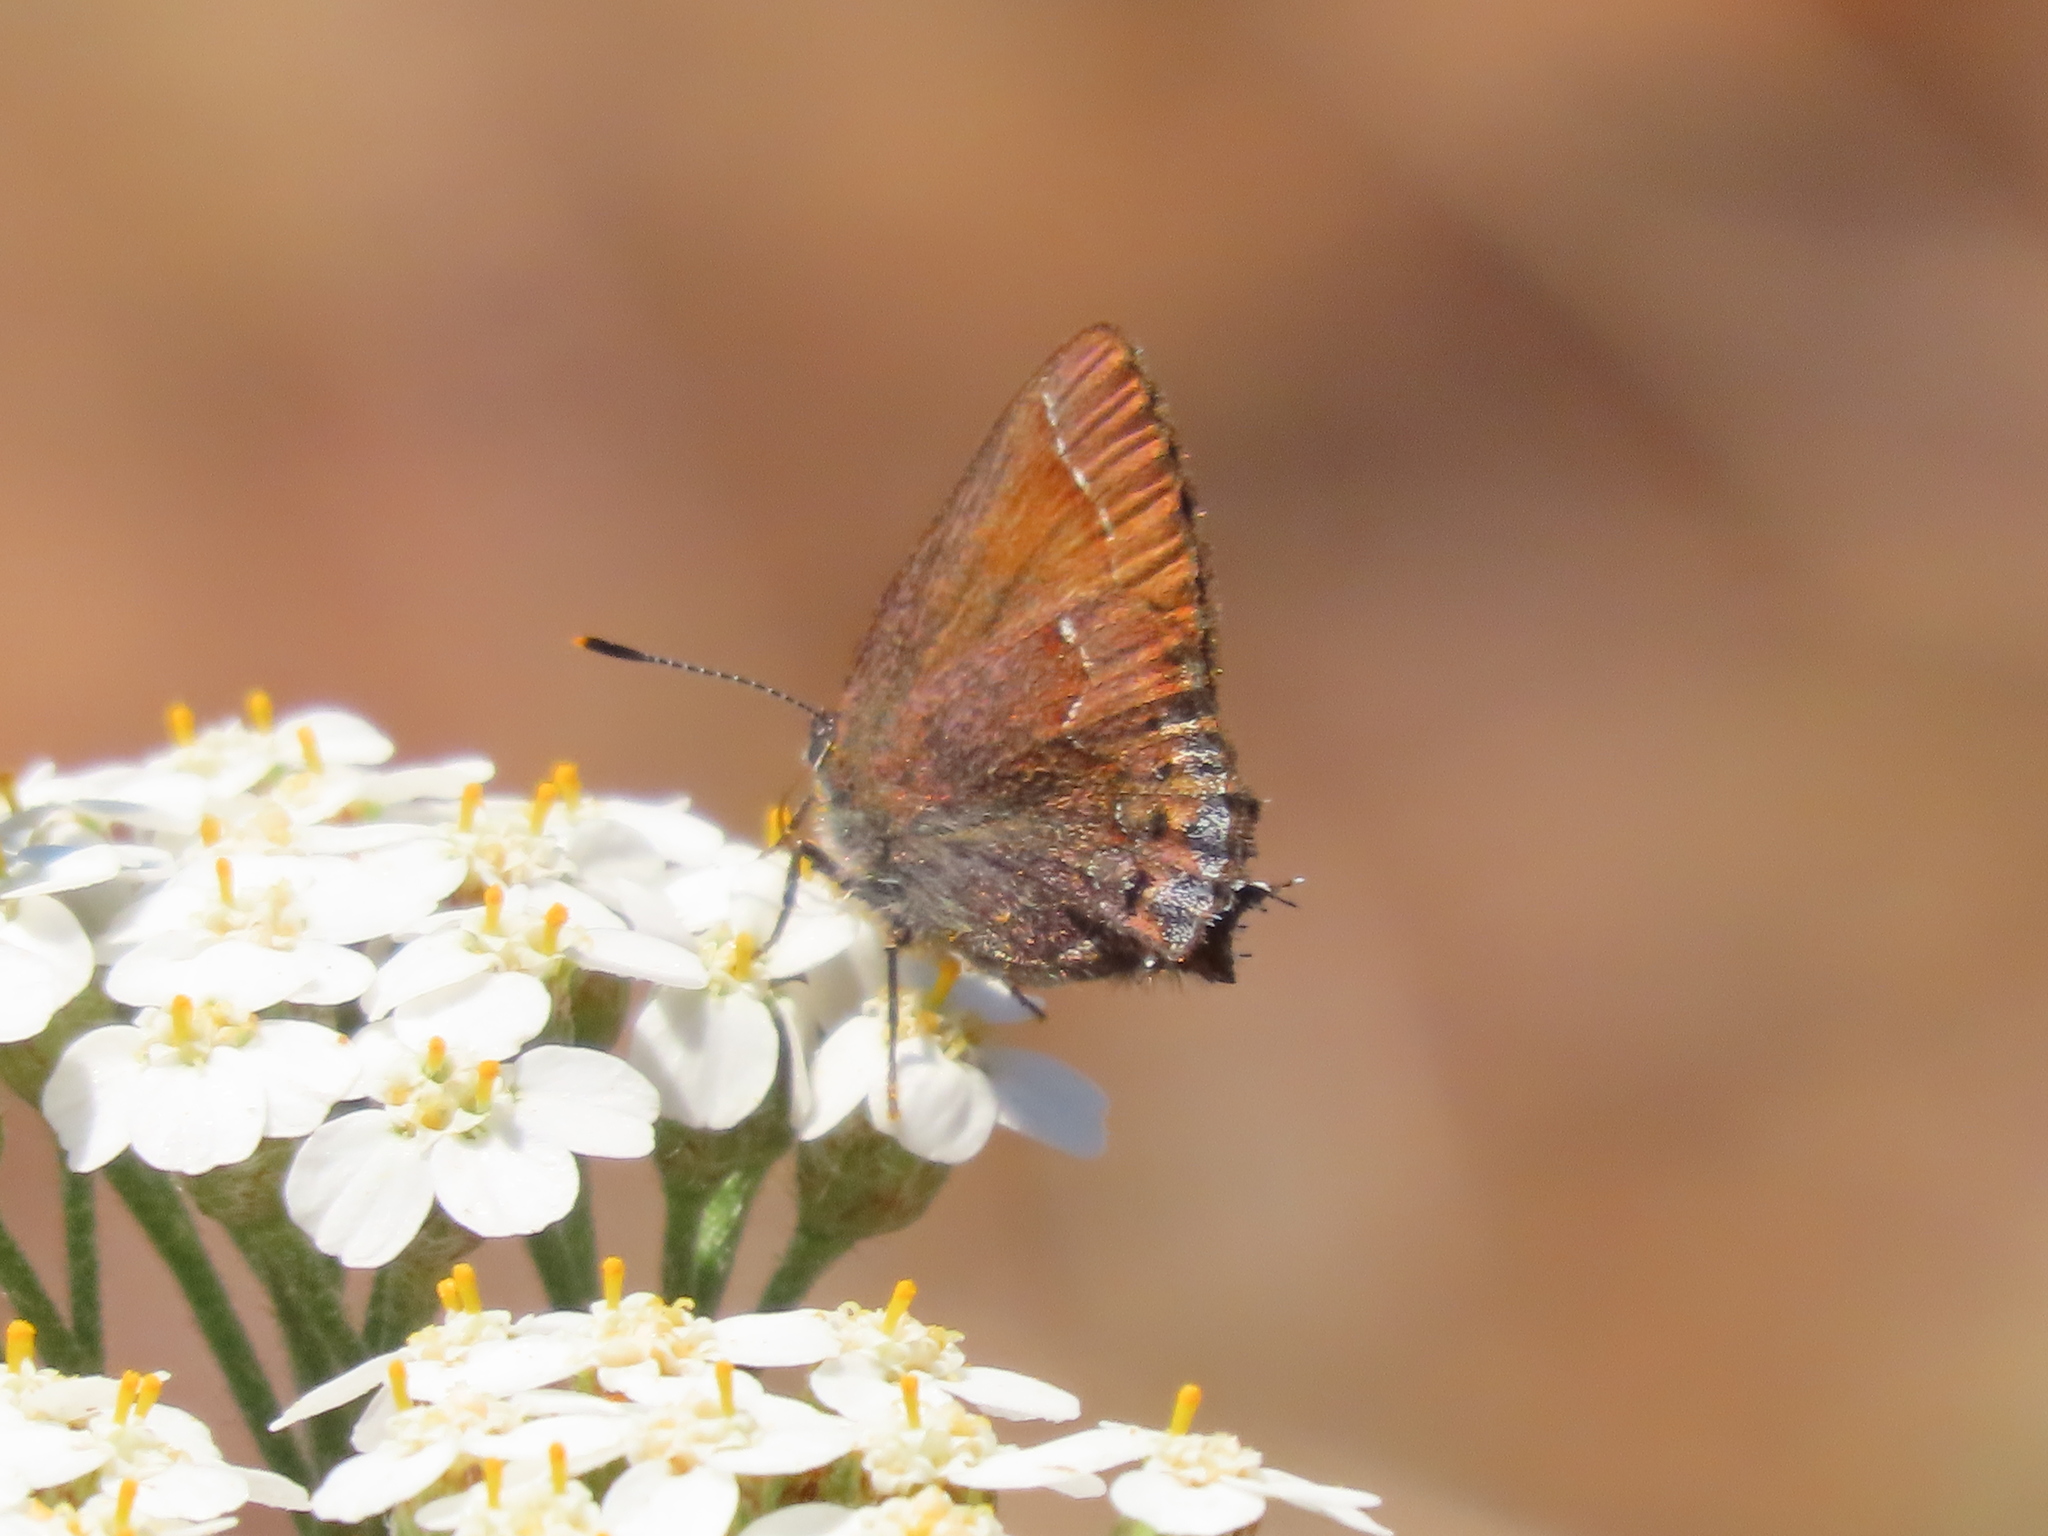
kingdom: Animalia
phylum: Arthropoda
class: Insecta
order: Lepidoptera
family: Lycaenidae
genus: Callophrys
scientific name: Callophrys muiri
